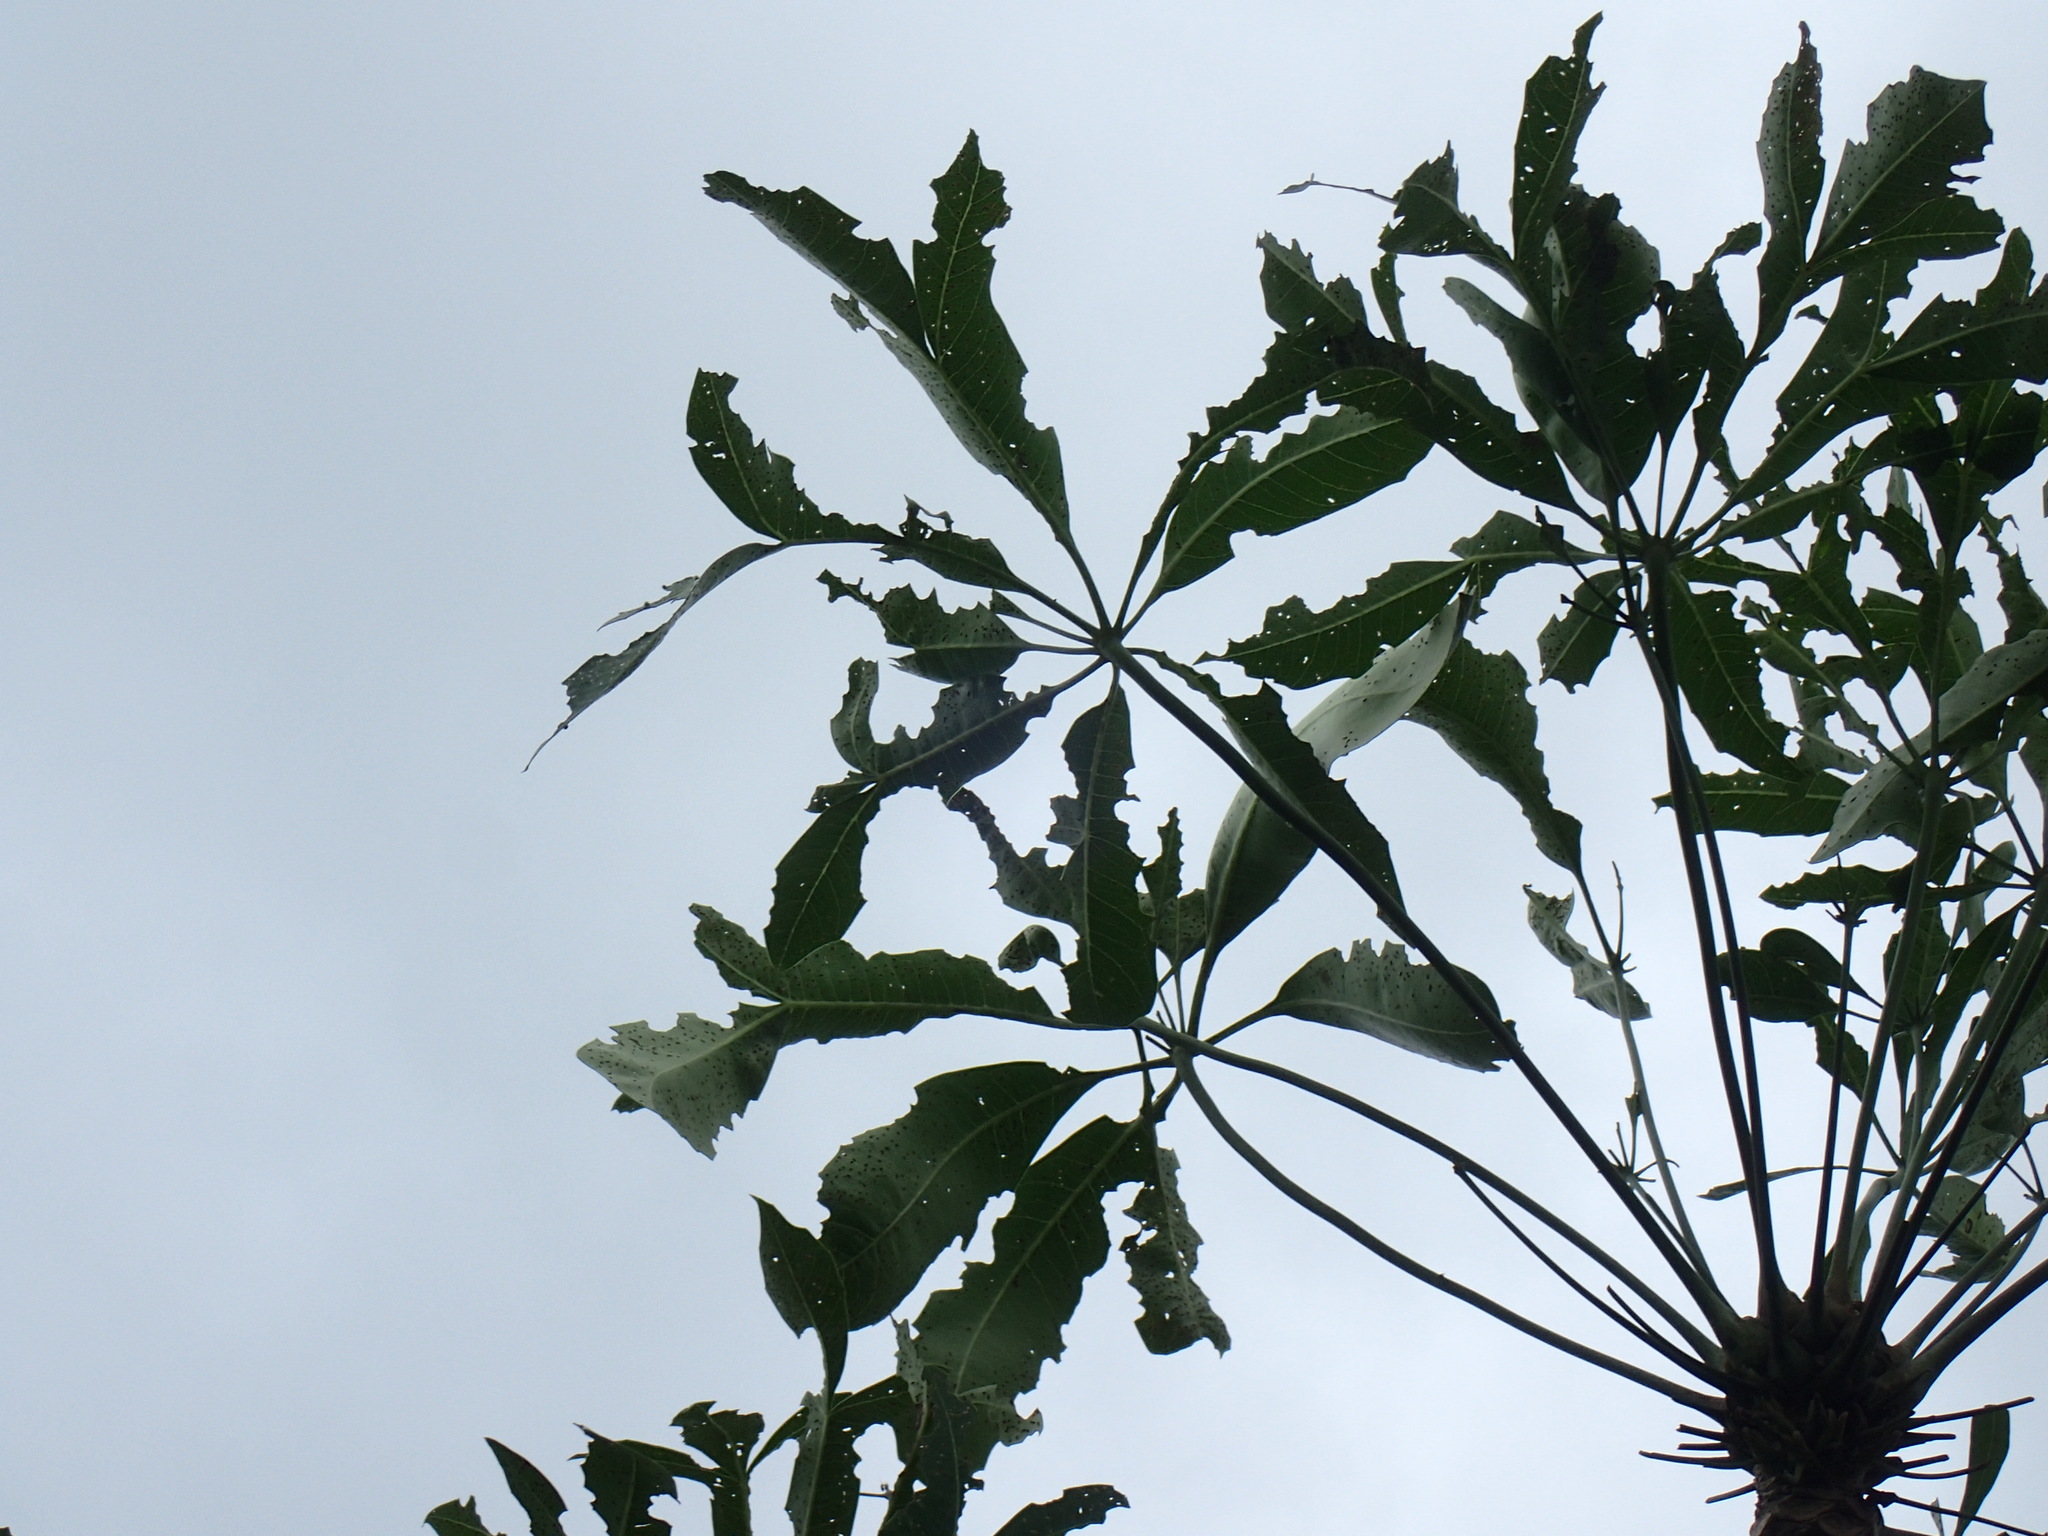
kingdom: Plantae
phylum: Tracheophyta
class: Magnoliopsida
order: Apiales
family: Araliaceae
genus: Cussonia
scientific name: Cussonia nicholsonii
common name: South coast cabbage-tree
